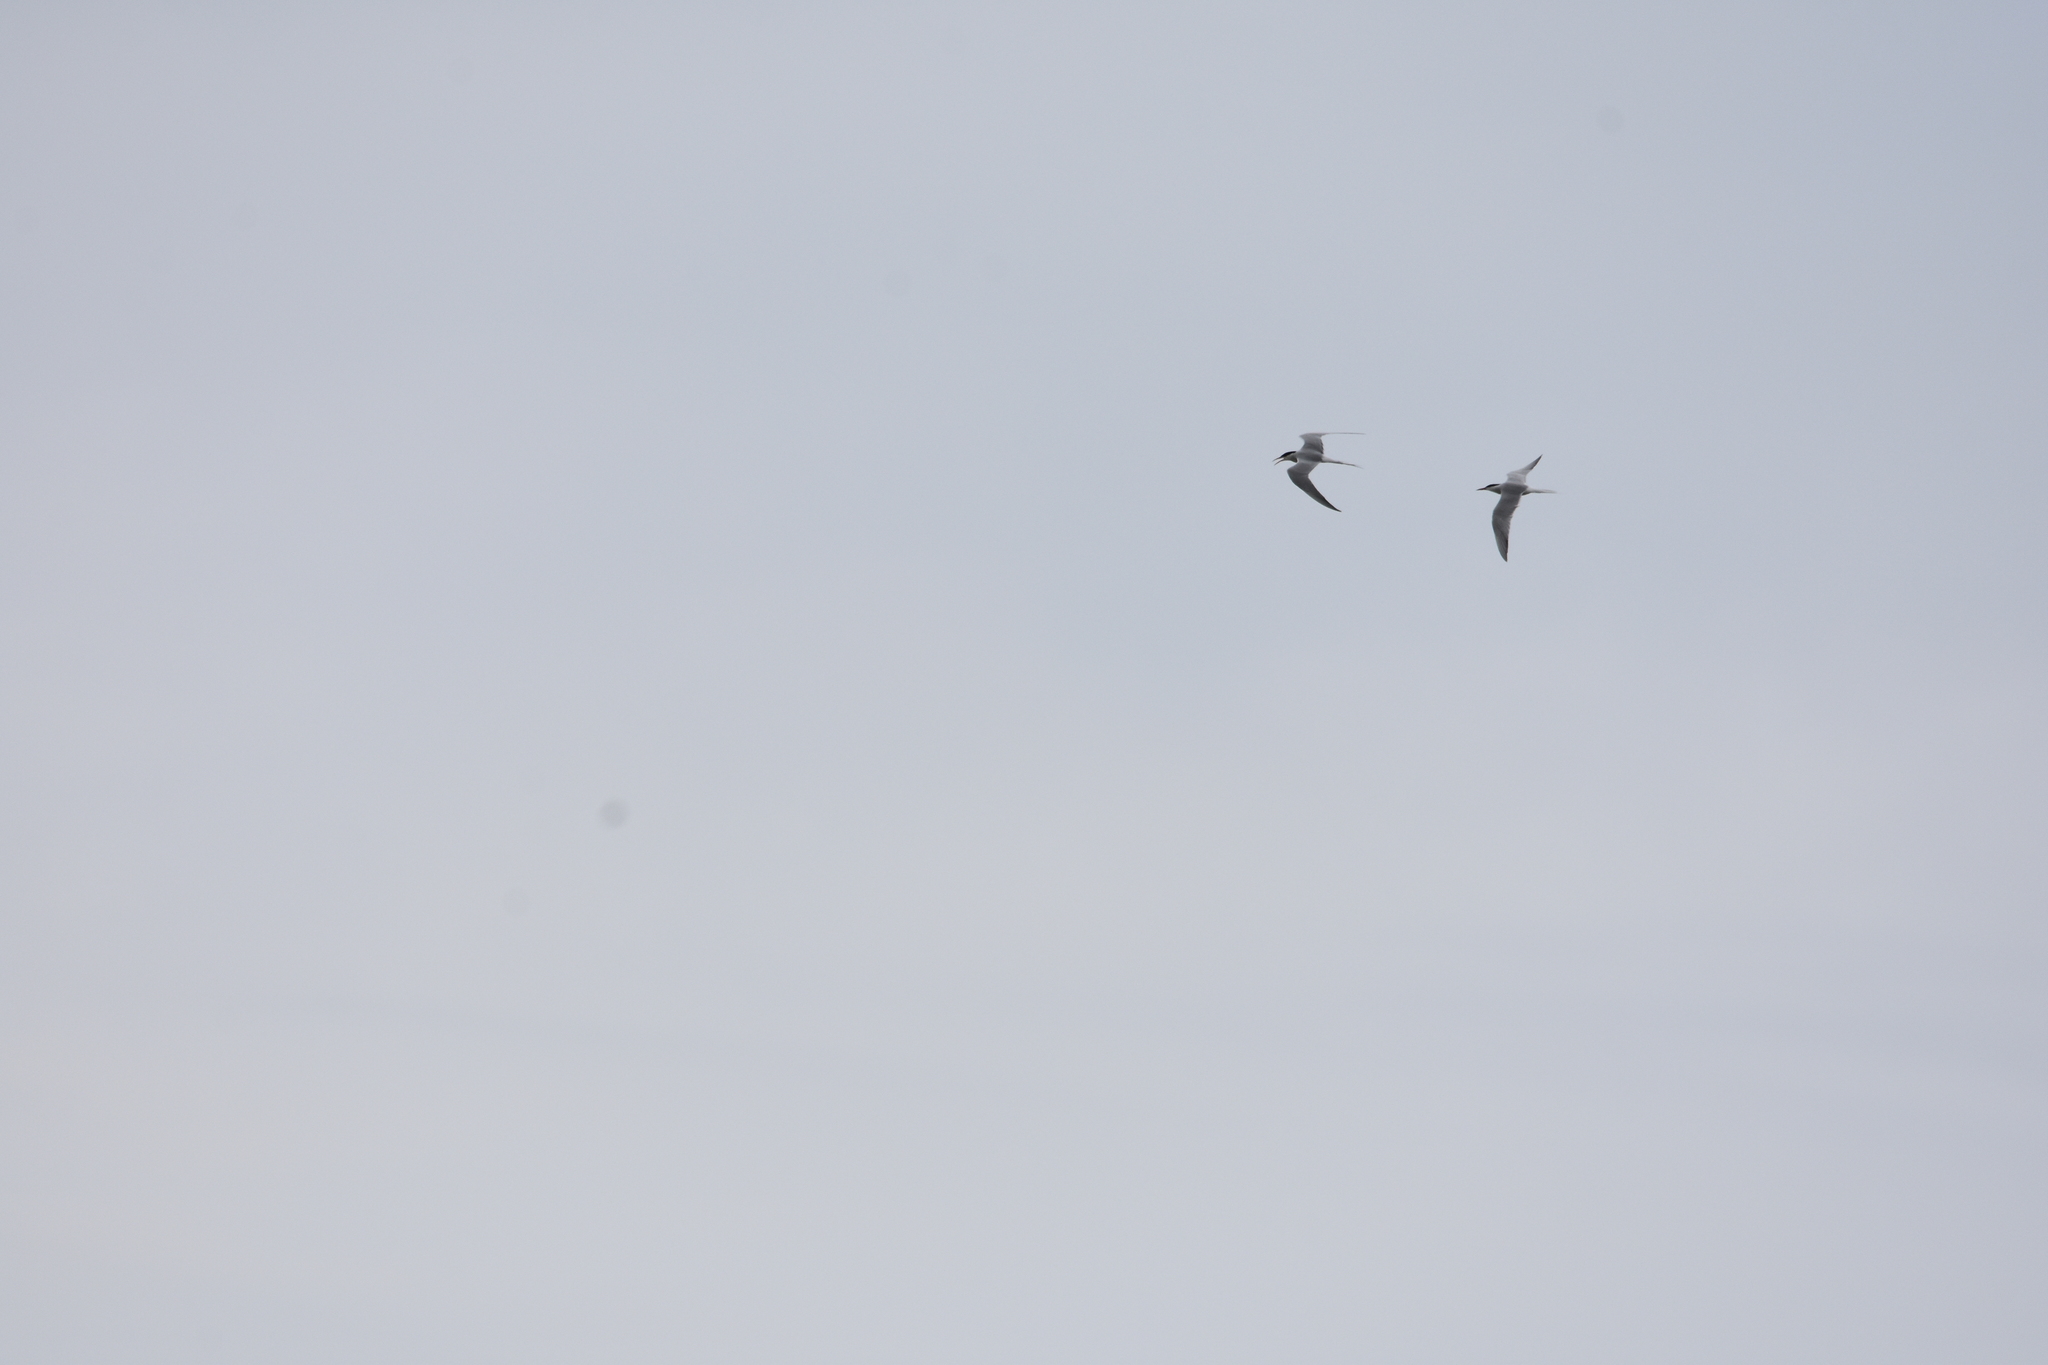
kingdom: Animalia
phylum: Chordata
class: Aves
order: Charadriiformes
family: Laridae
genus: Sterna
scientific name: Sterna hirundo
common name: Common tern
